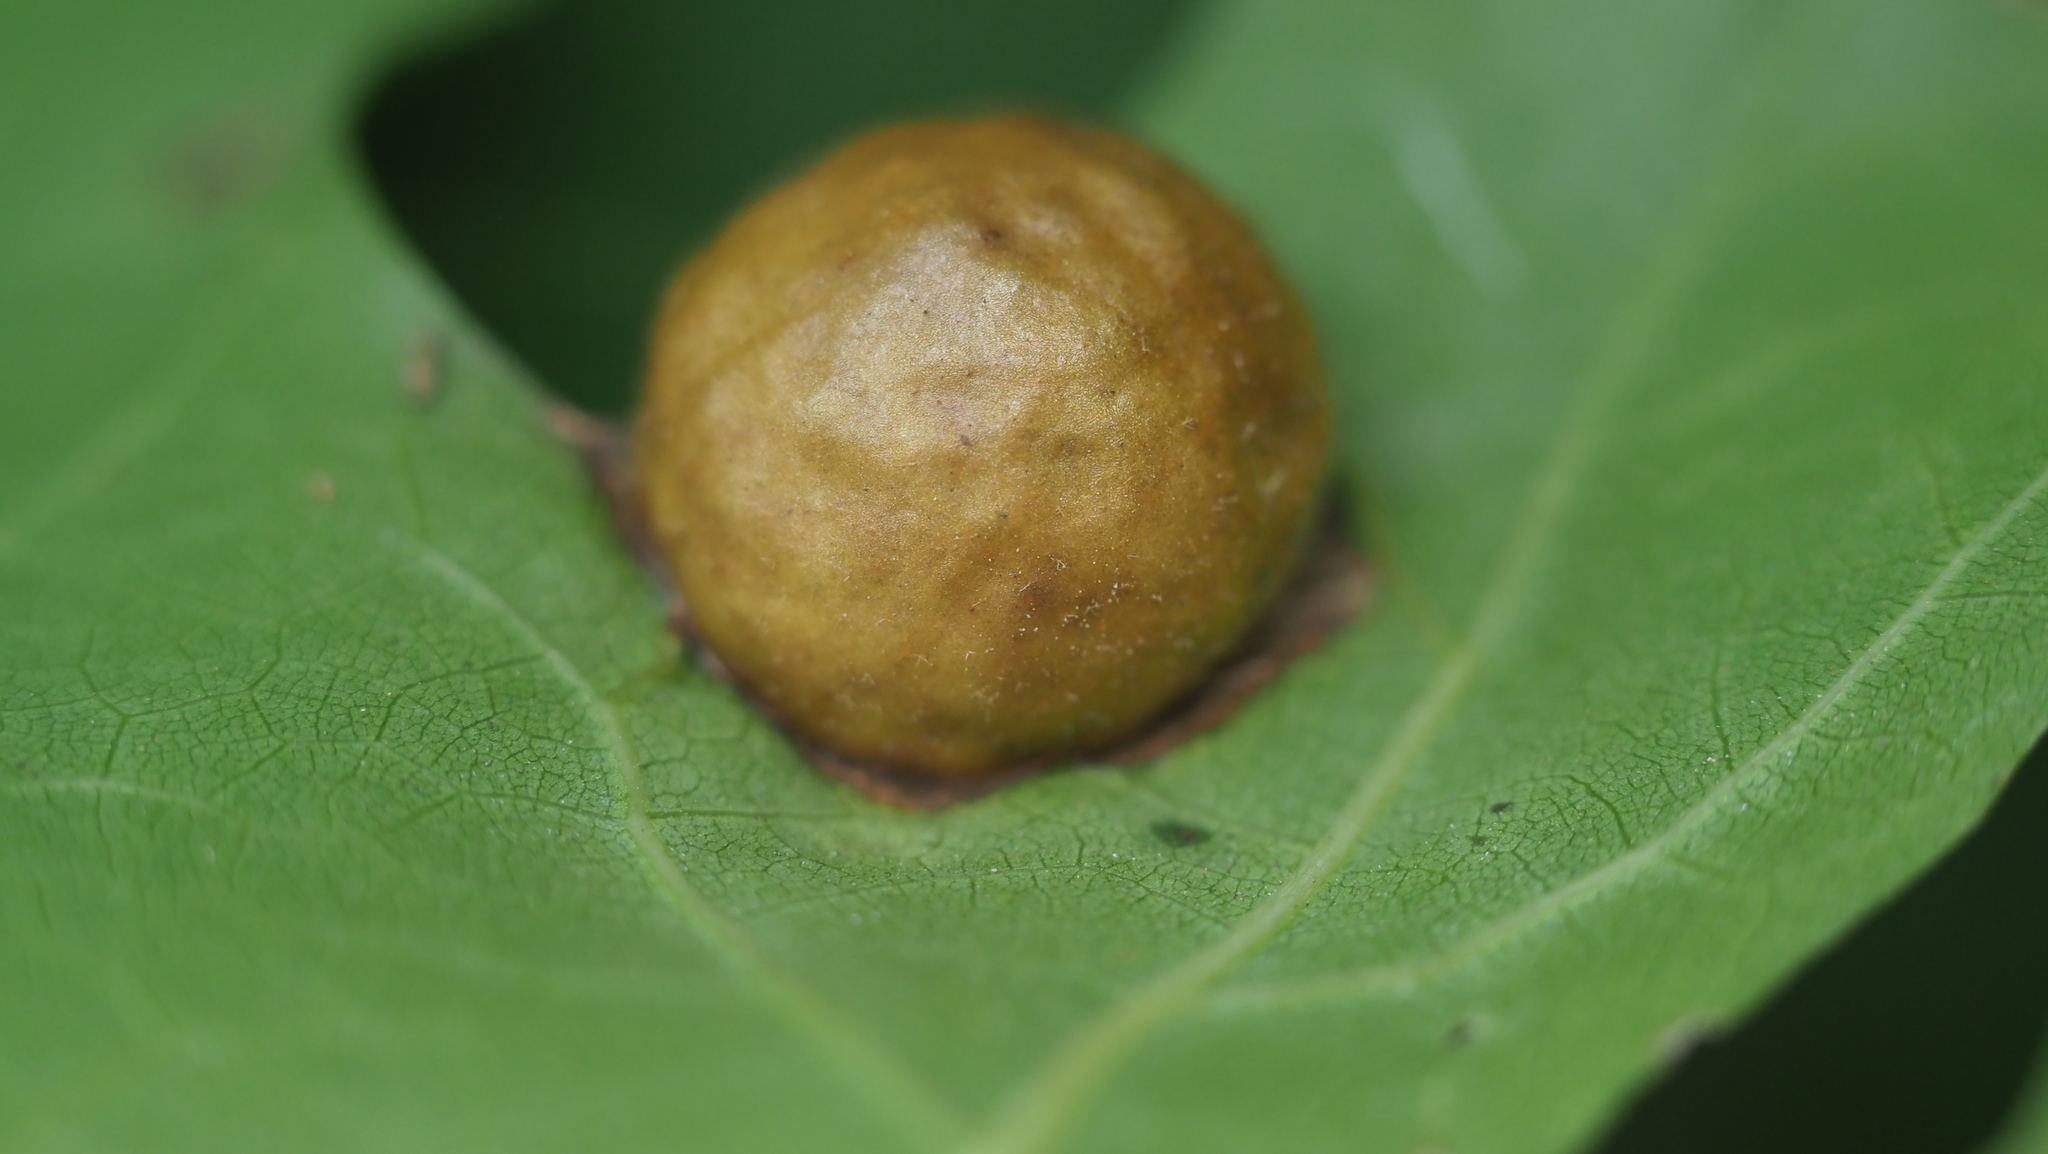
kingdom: Animalia
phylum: Arthropoda
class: Insecta
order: Hymenoptera
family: Cynipidae
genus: Amphibolips
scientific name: Amphibolips
